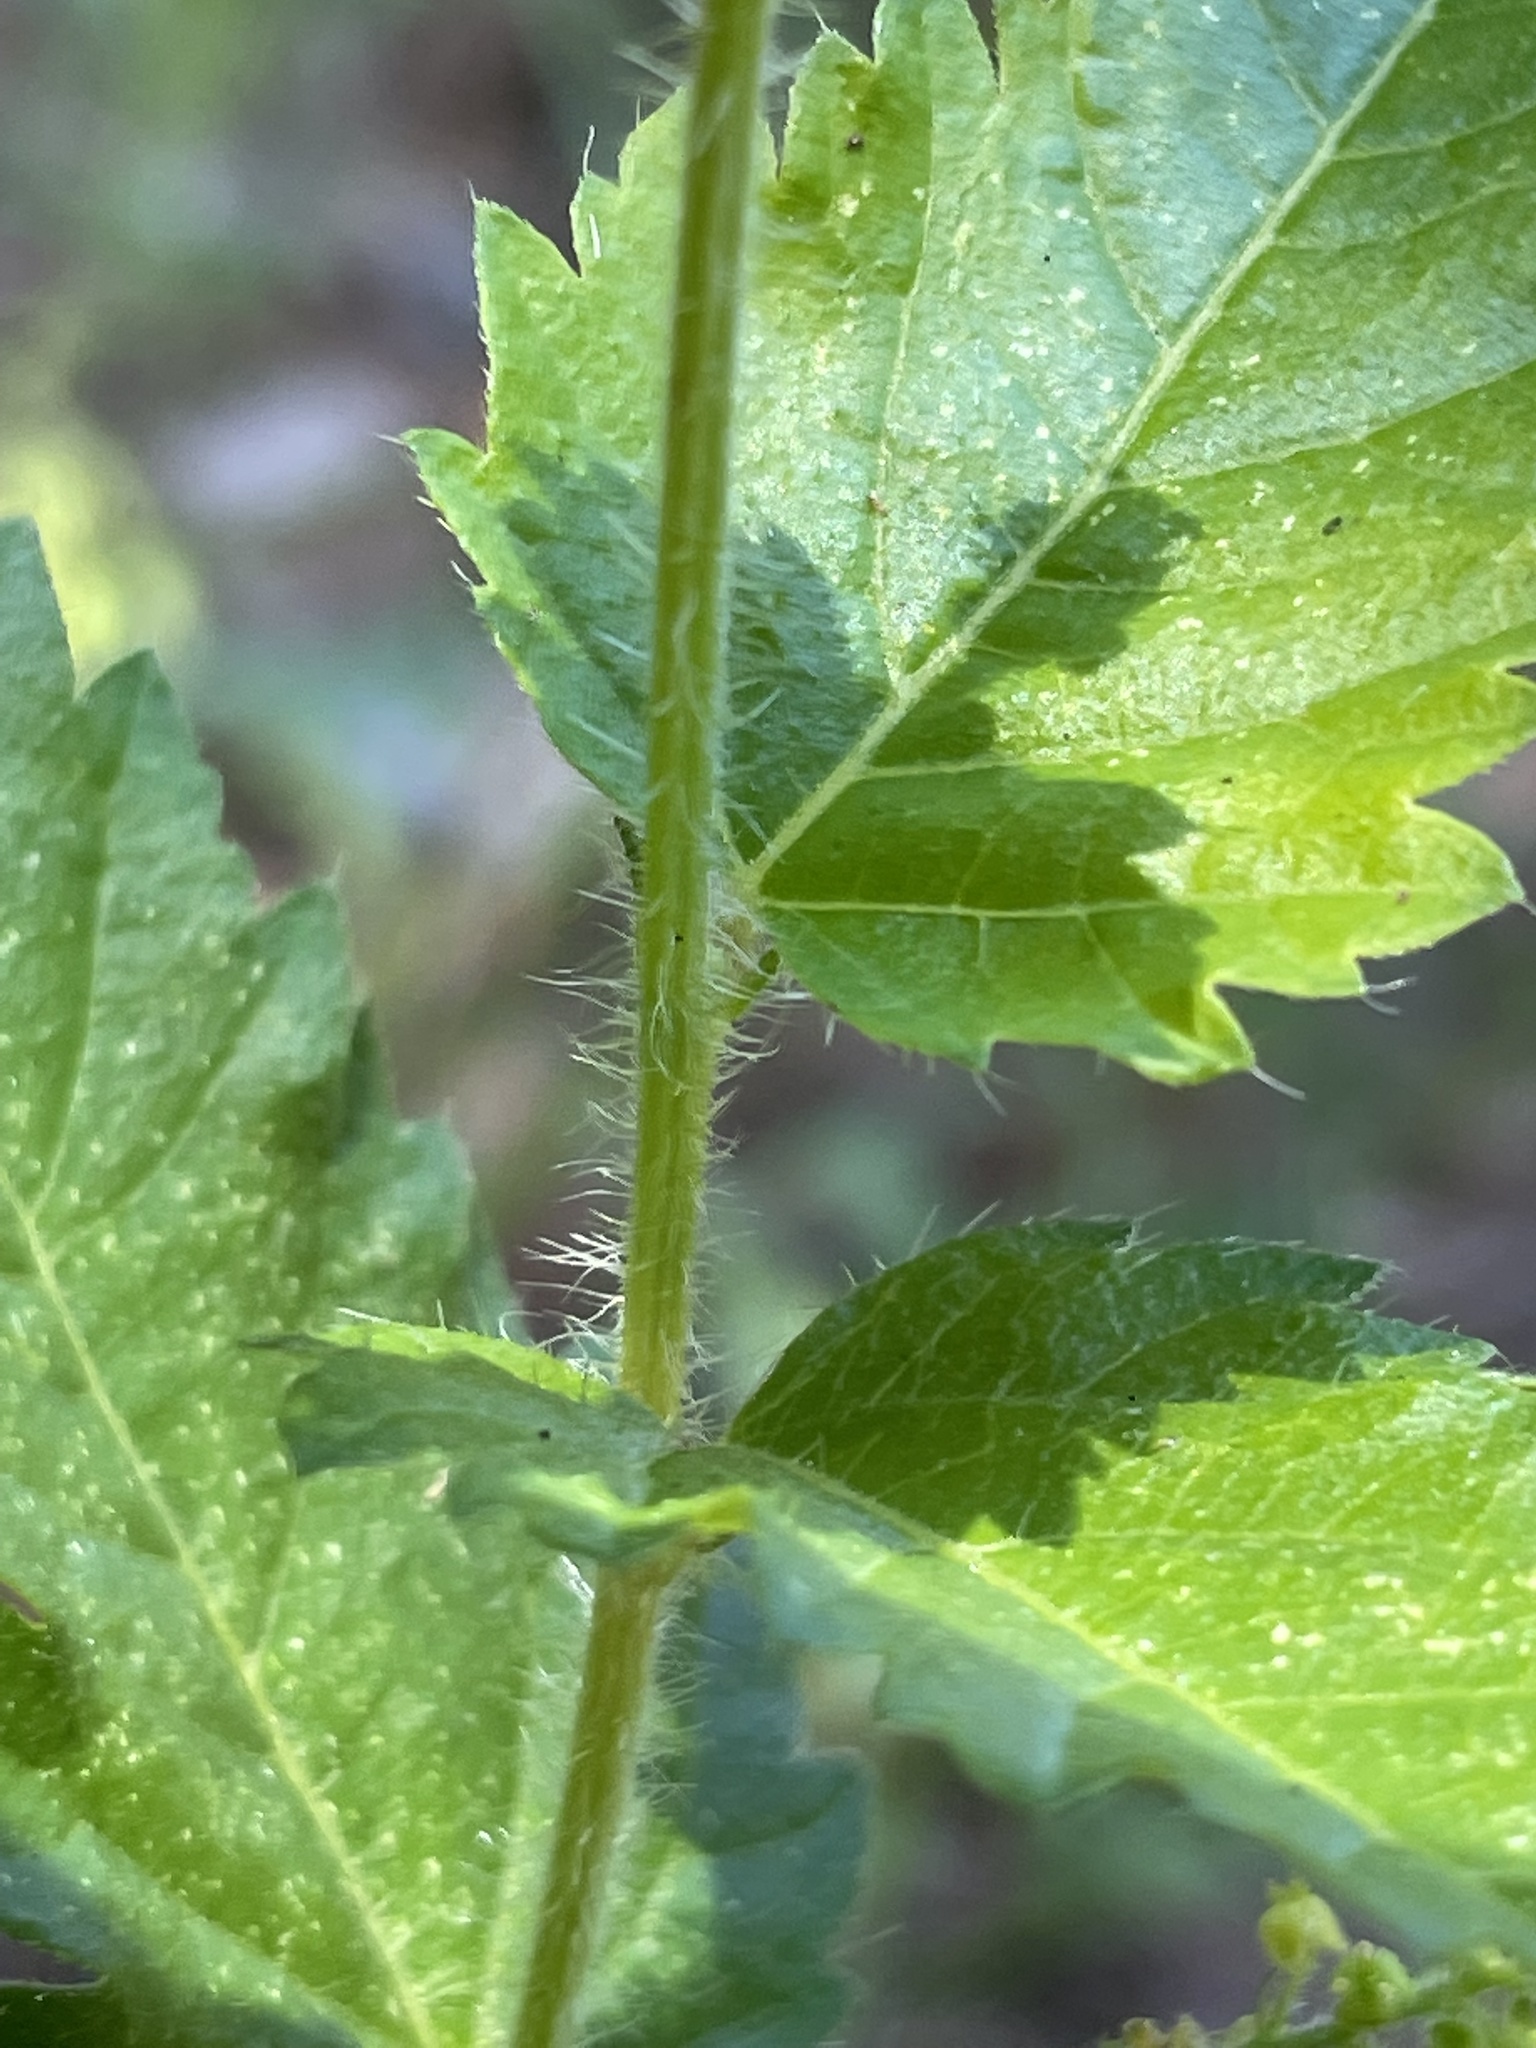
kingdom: Plantae
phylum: Tracheophyta
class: Magnoliopsida
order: Malpighiales
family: Euphorbiaceae
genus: Tragia
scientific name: Tragia urticifolia
